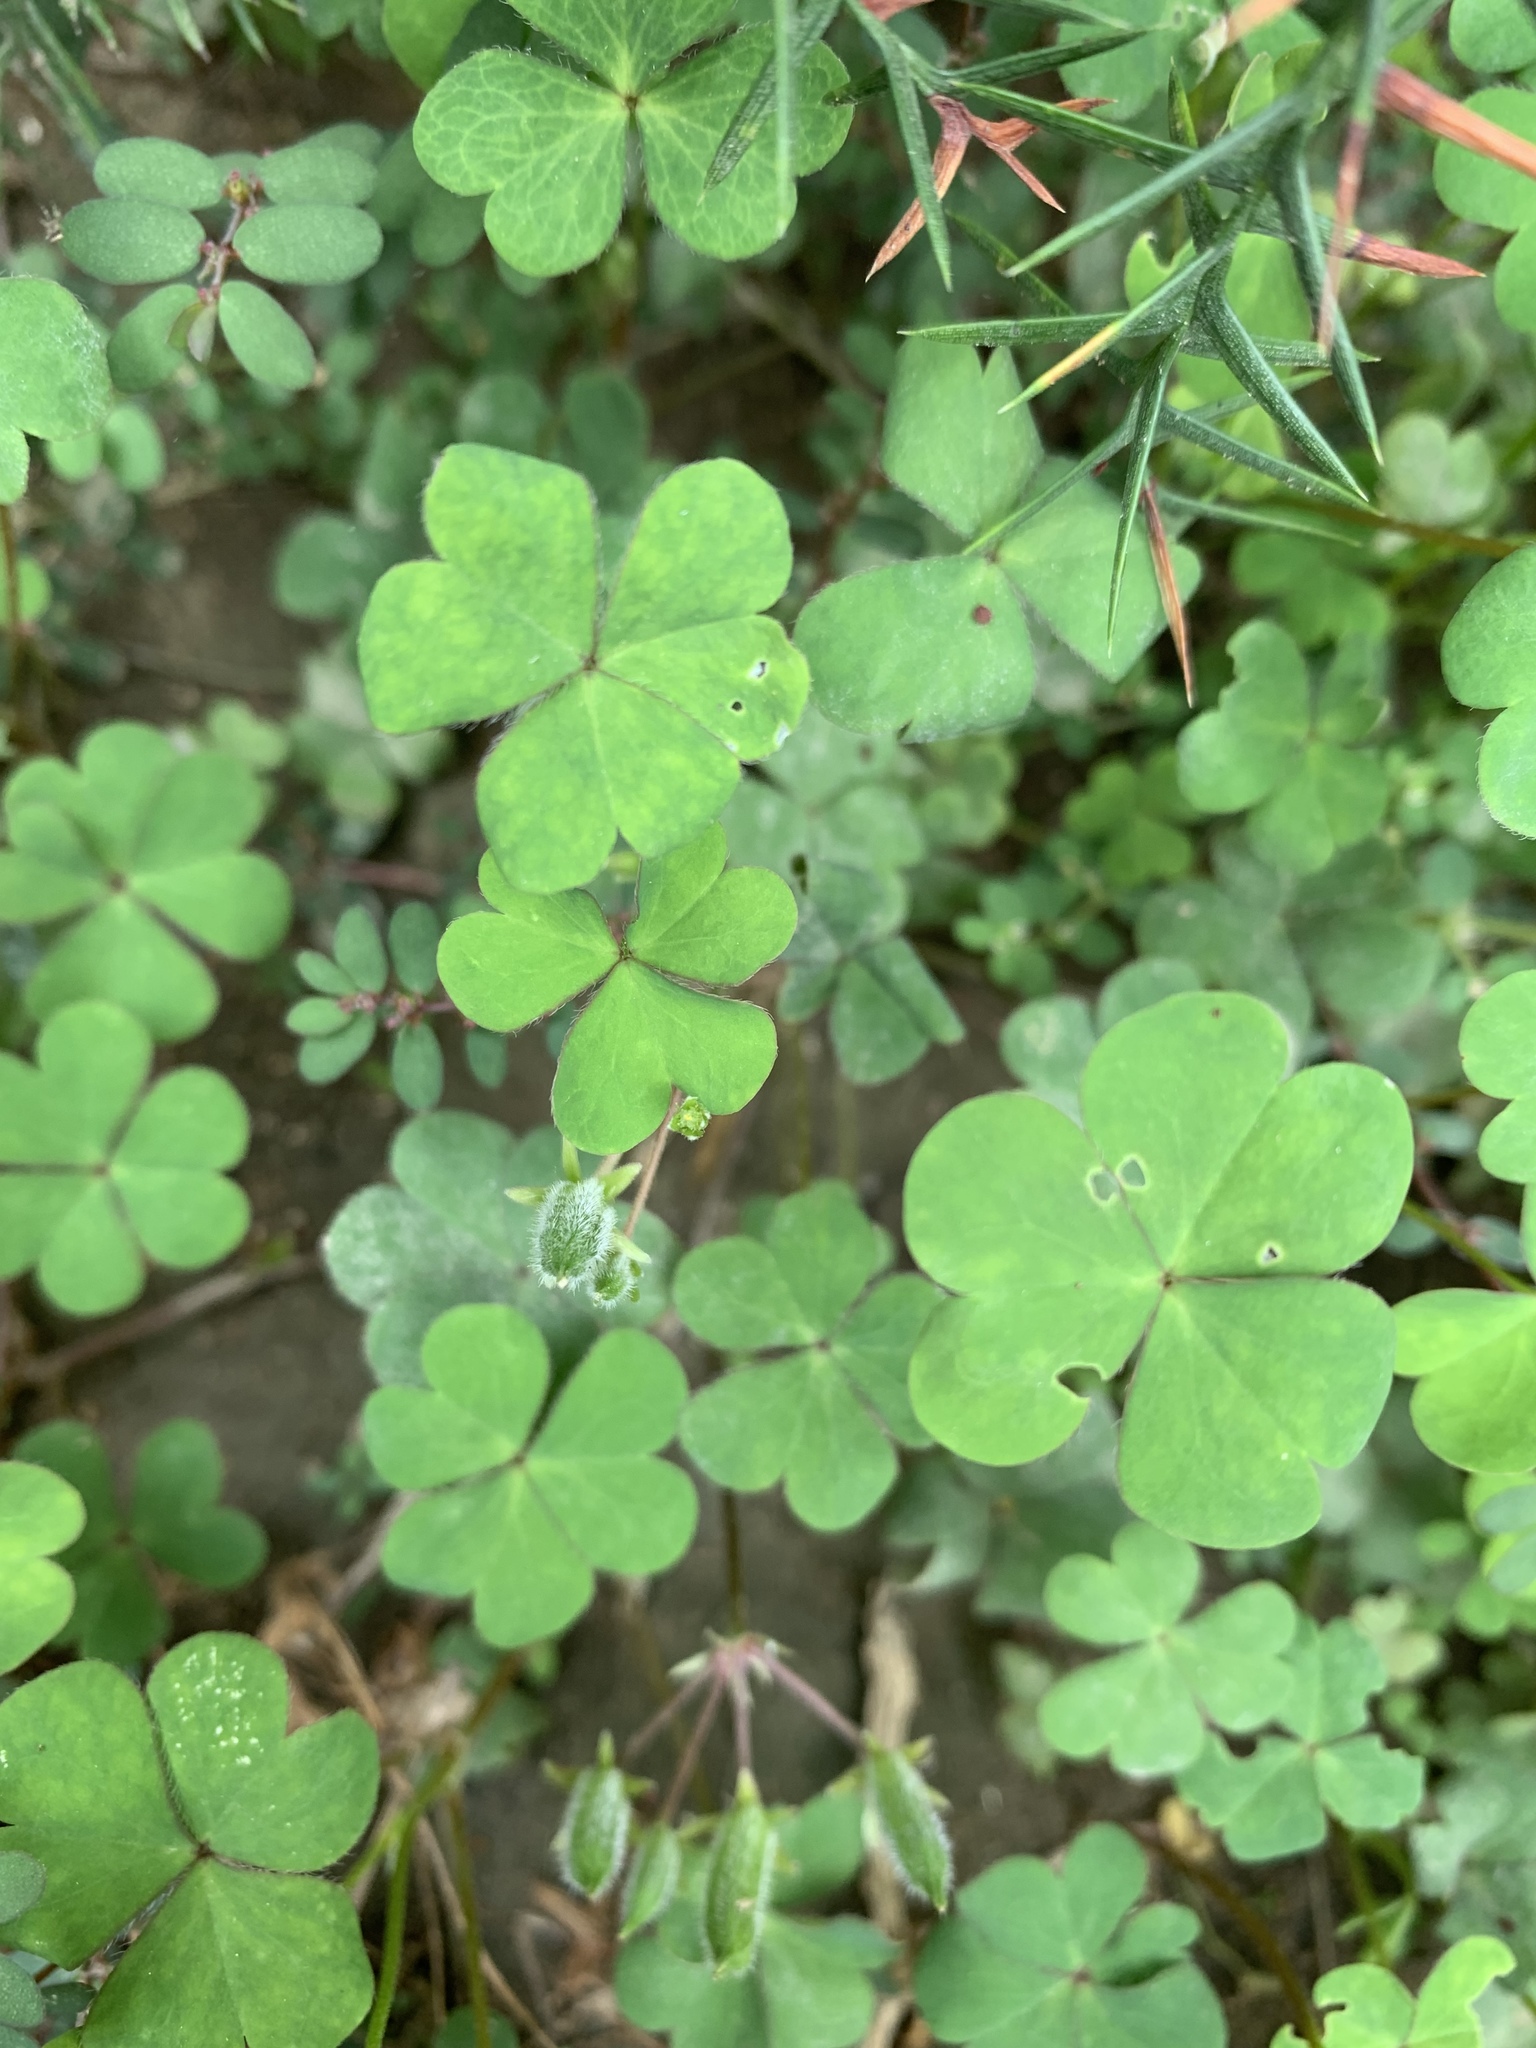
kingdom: Plantae
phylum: Tracheophyta
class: Magnoliopsida
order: Oxalidales
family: Oxalidaceae
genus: Oxalis
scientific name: Oxalis corniculata
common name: Procumbent yellow-sorrel
